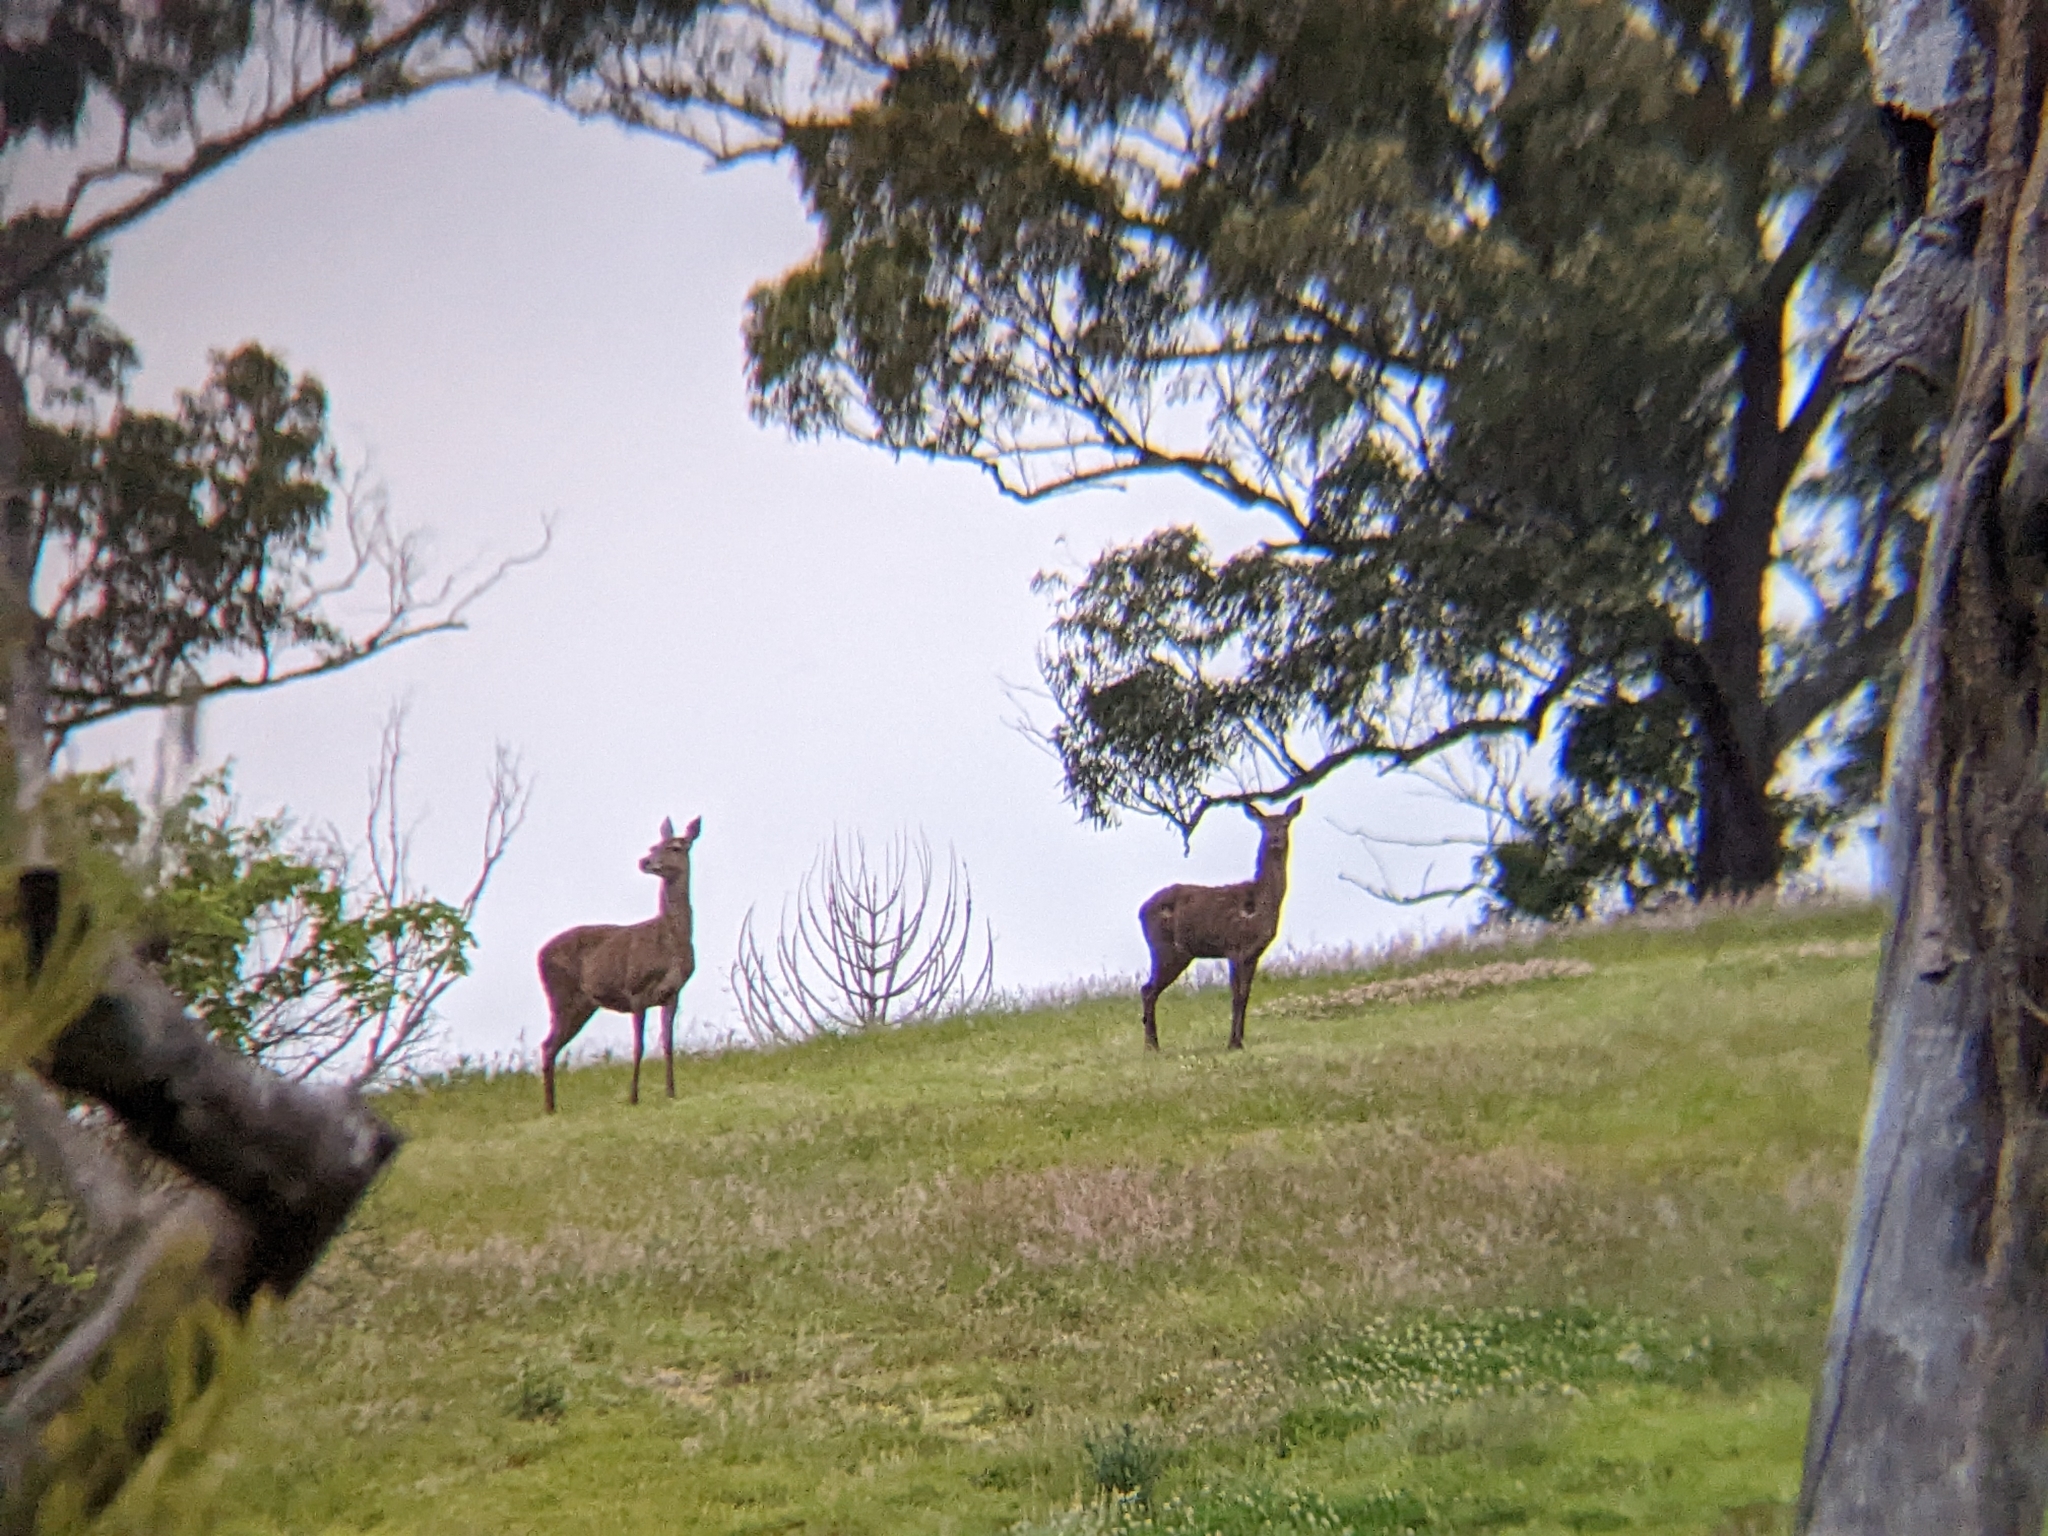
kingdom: Animalia
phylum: Chordata
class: Mammalia
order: Artiodactyla
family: Cervidae
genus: Cervus
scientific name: Cervus elaphus
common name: Red deer
